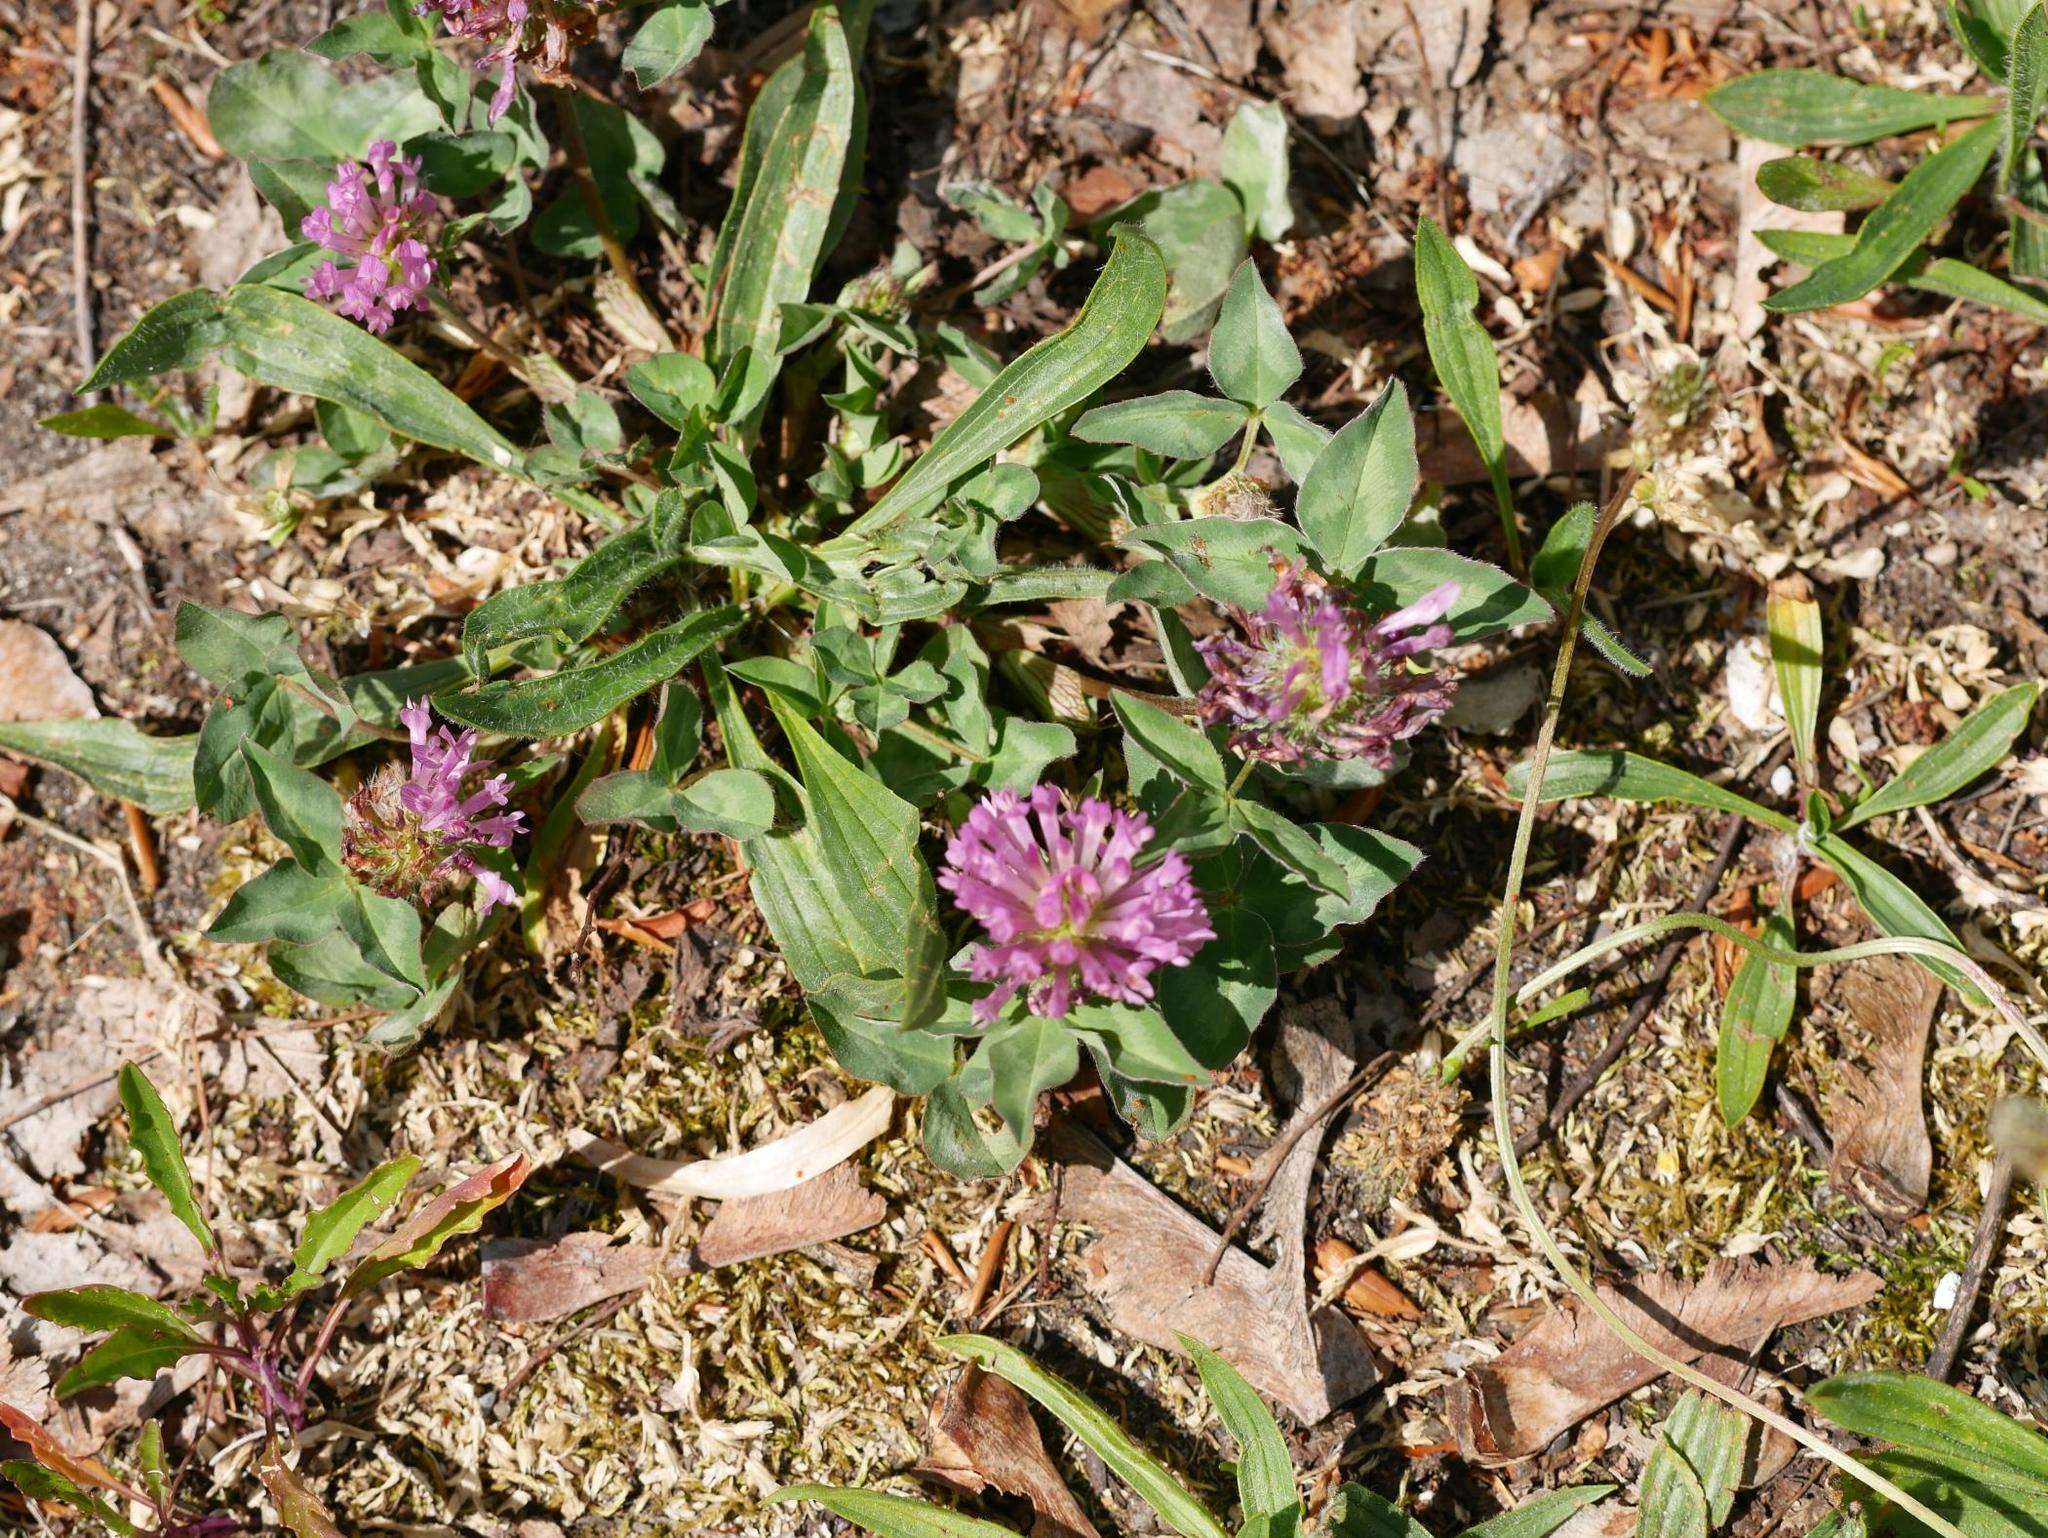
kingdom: Plantae
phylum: Tracheophyta
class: Magnoliopsida
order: Fabales
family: Fabaceae
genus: Trifolium
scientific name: Trifolium pratense
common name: Red clover
